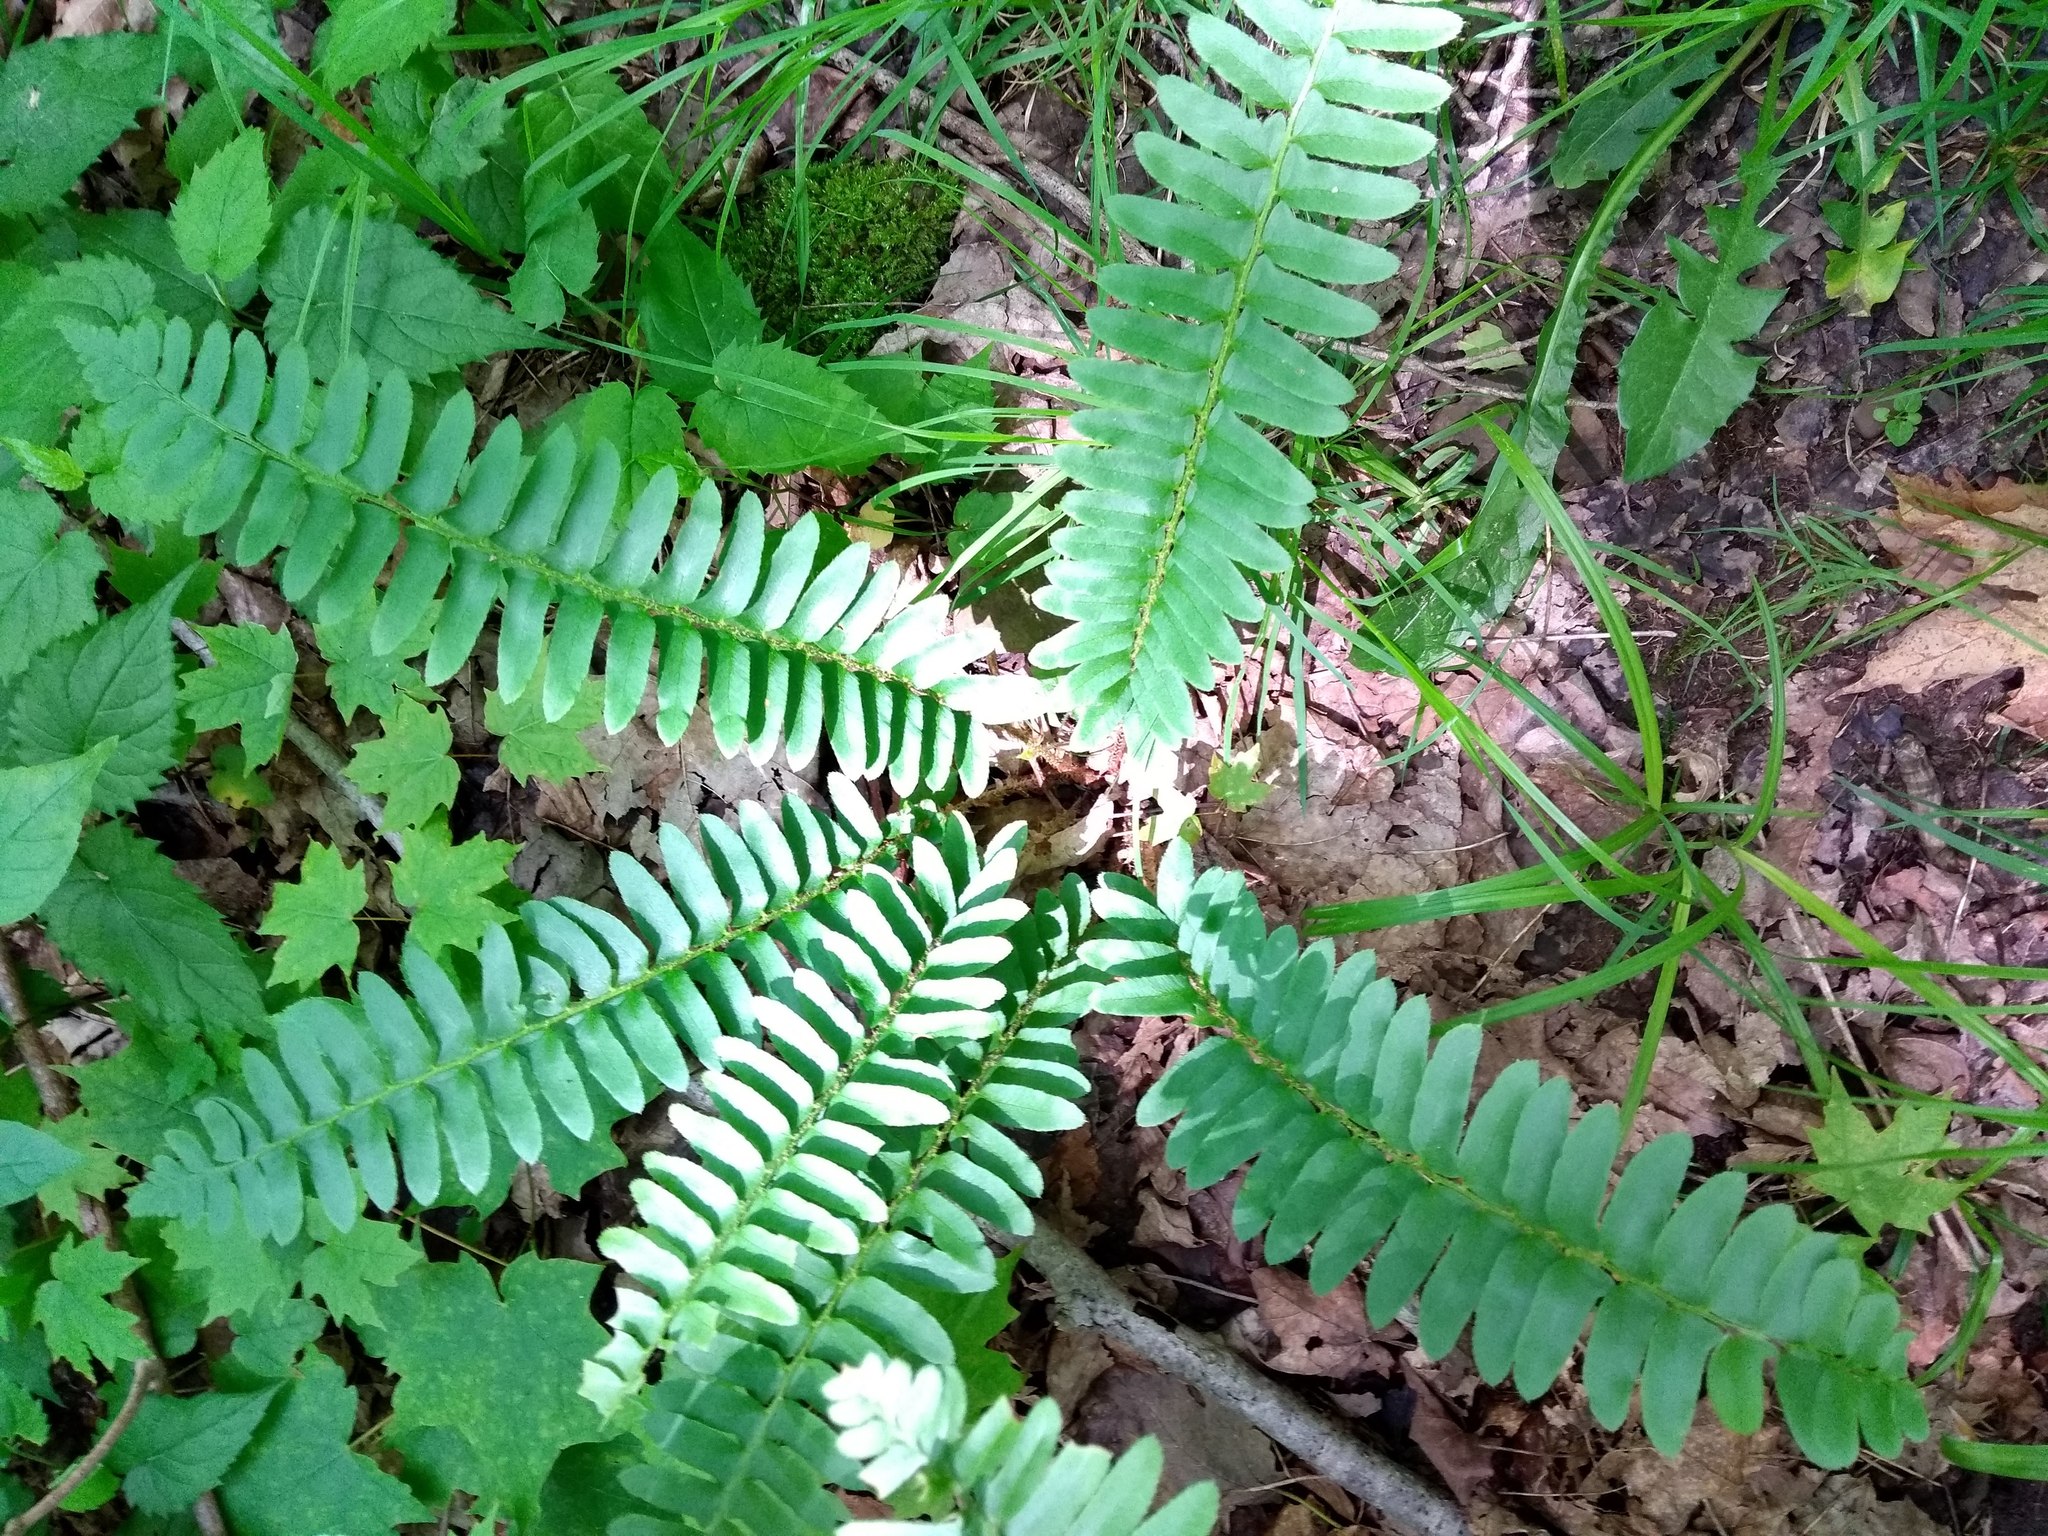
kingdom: Plantae
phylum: Tracheophyta
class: Polypodiopsida
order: Polypodiales
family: Dryopteridaceae
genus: Polystichum
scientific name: Polystichum acrostichoides
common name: Christmas fern
